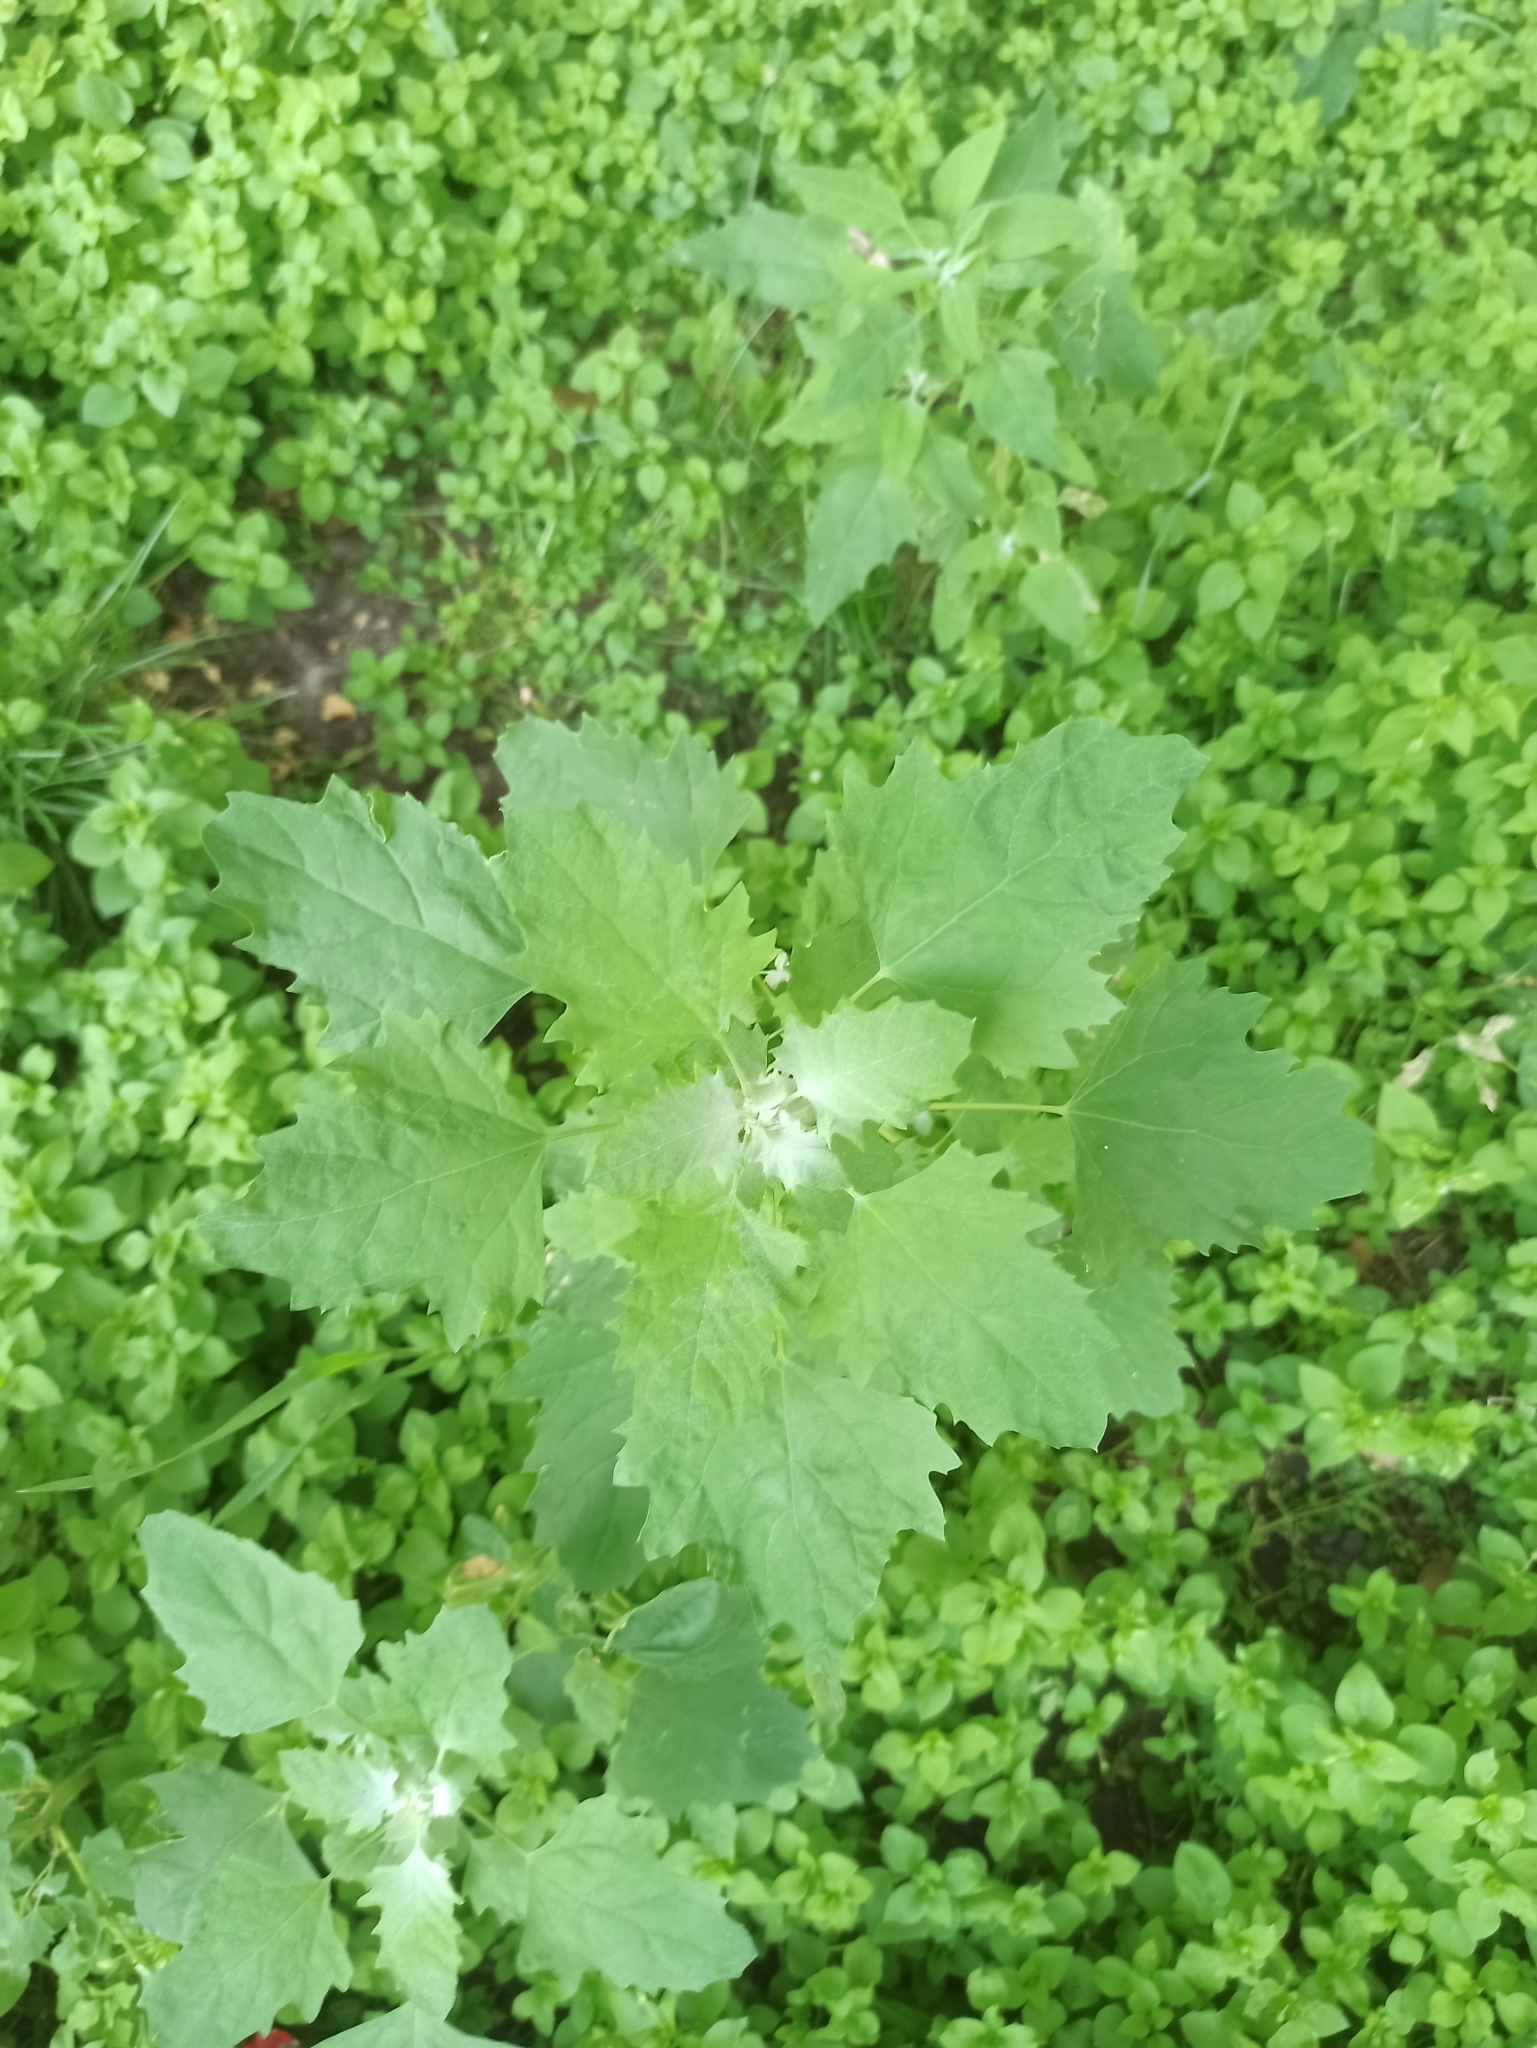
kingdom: Plantae
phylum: Tracheophyta
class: Magnoliopsida
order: Caryophyllales
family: Amaranthaceae
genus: Chenopodium
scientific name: Chenopodium album
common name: Fat-hen
